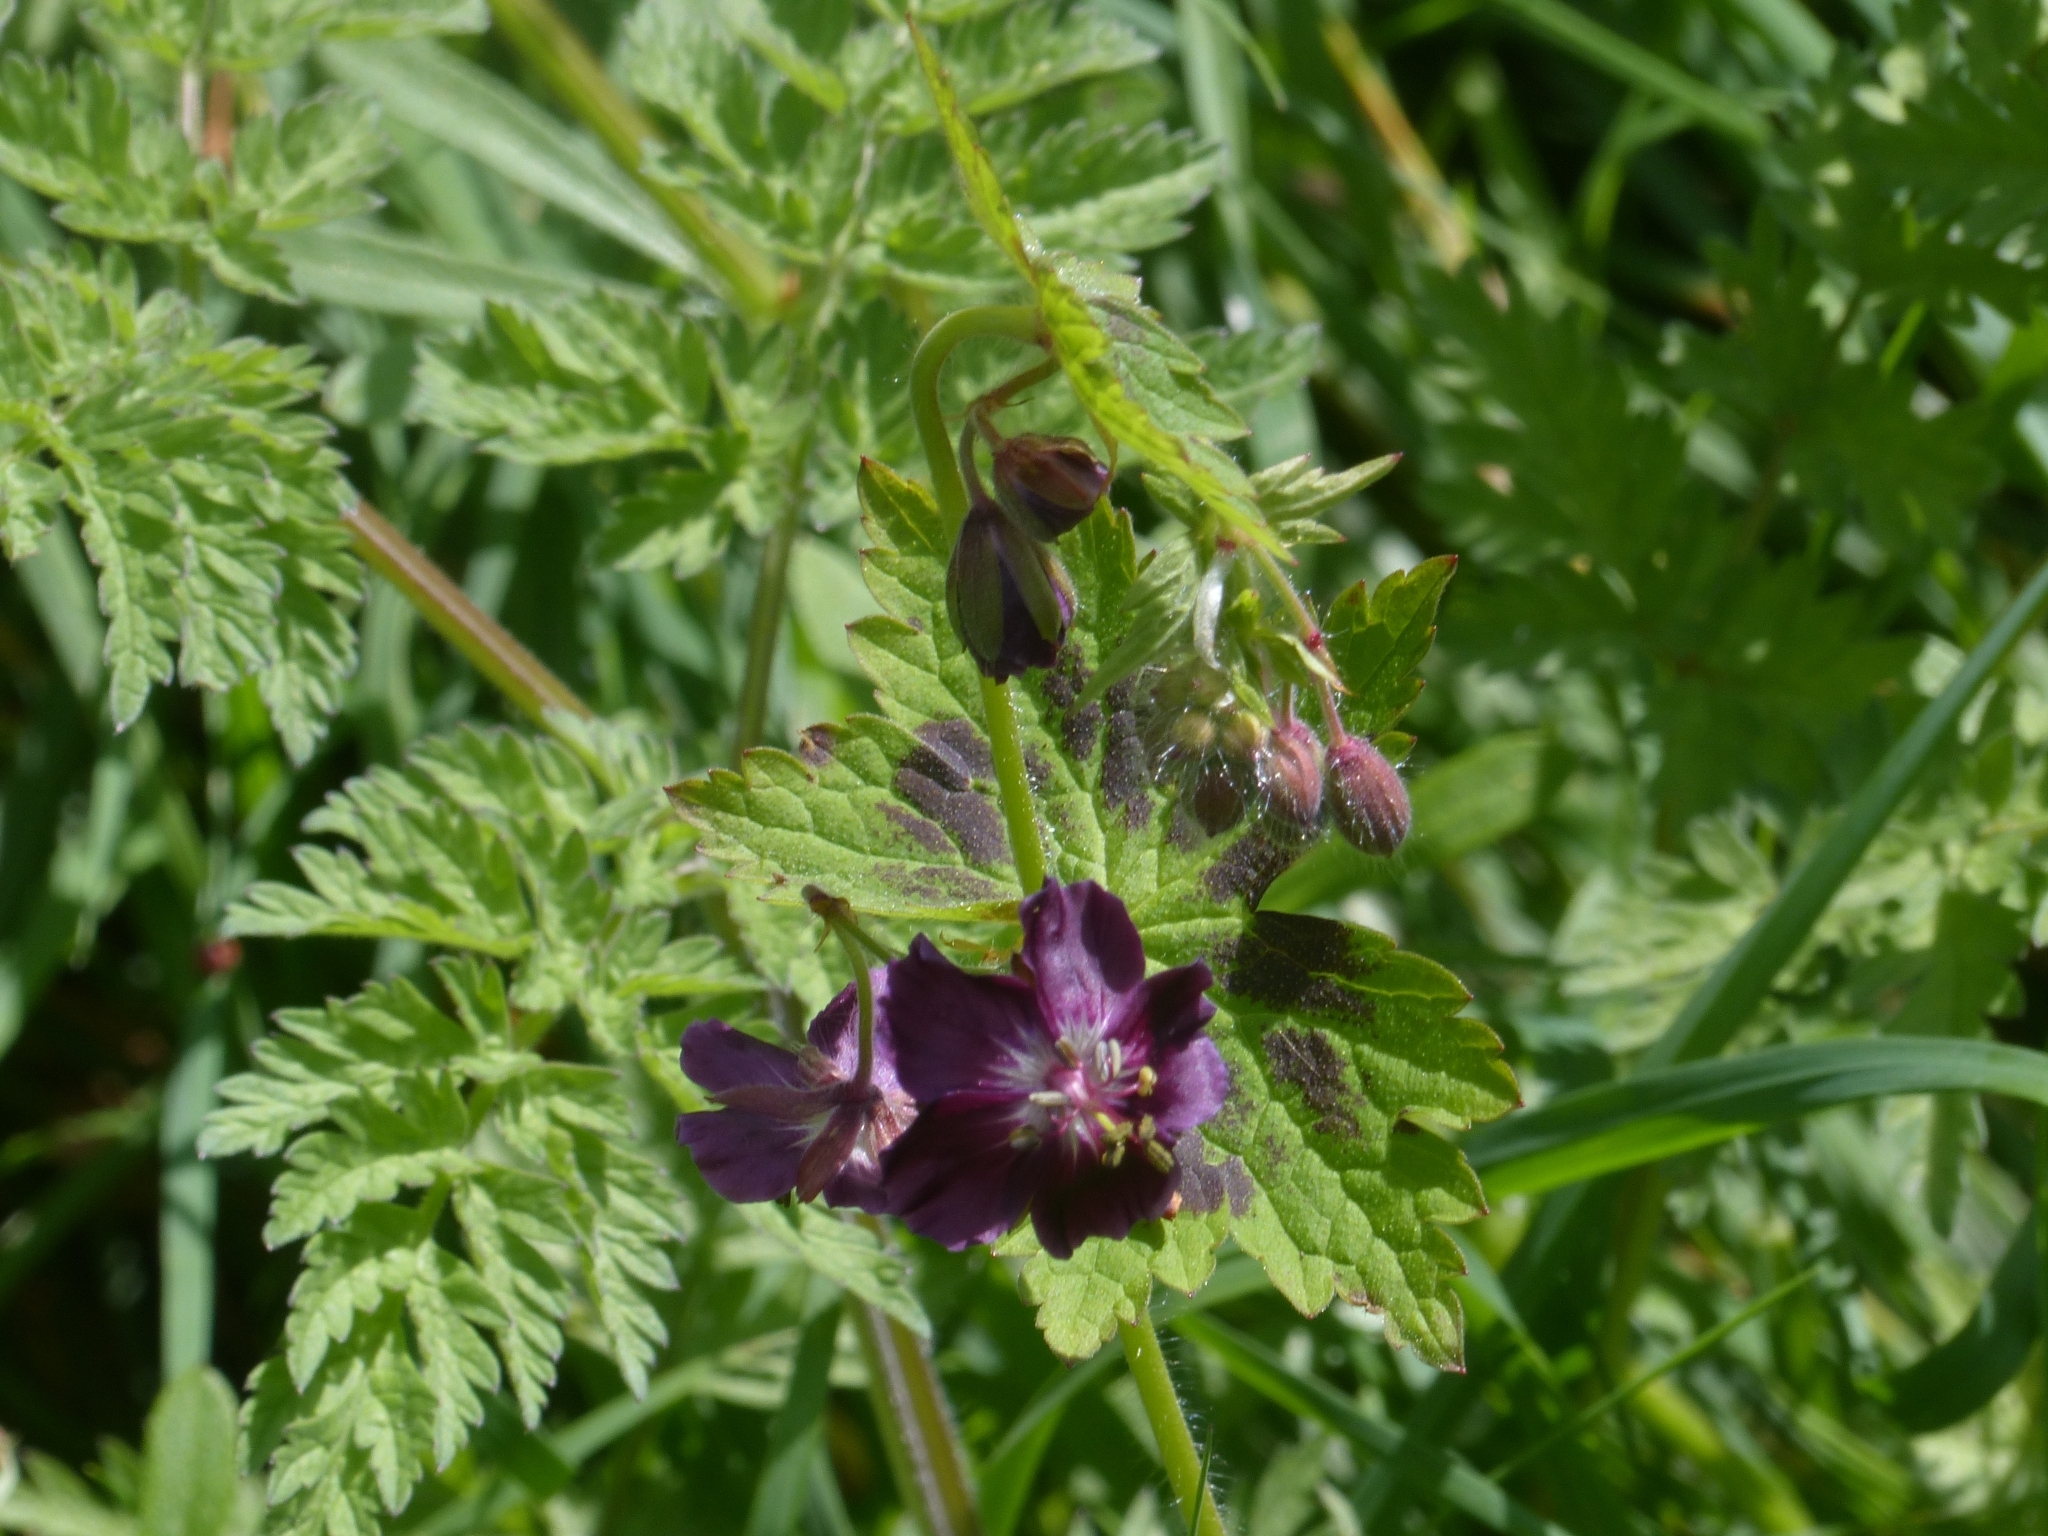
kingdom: Plantae
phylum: Tracheophyta
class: Magnoliopsida
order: Geraniales
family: Geraniaceae
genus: Geranium
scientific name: Geranium phaeum
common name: Dusky crane's-bill
